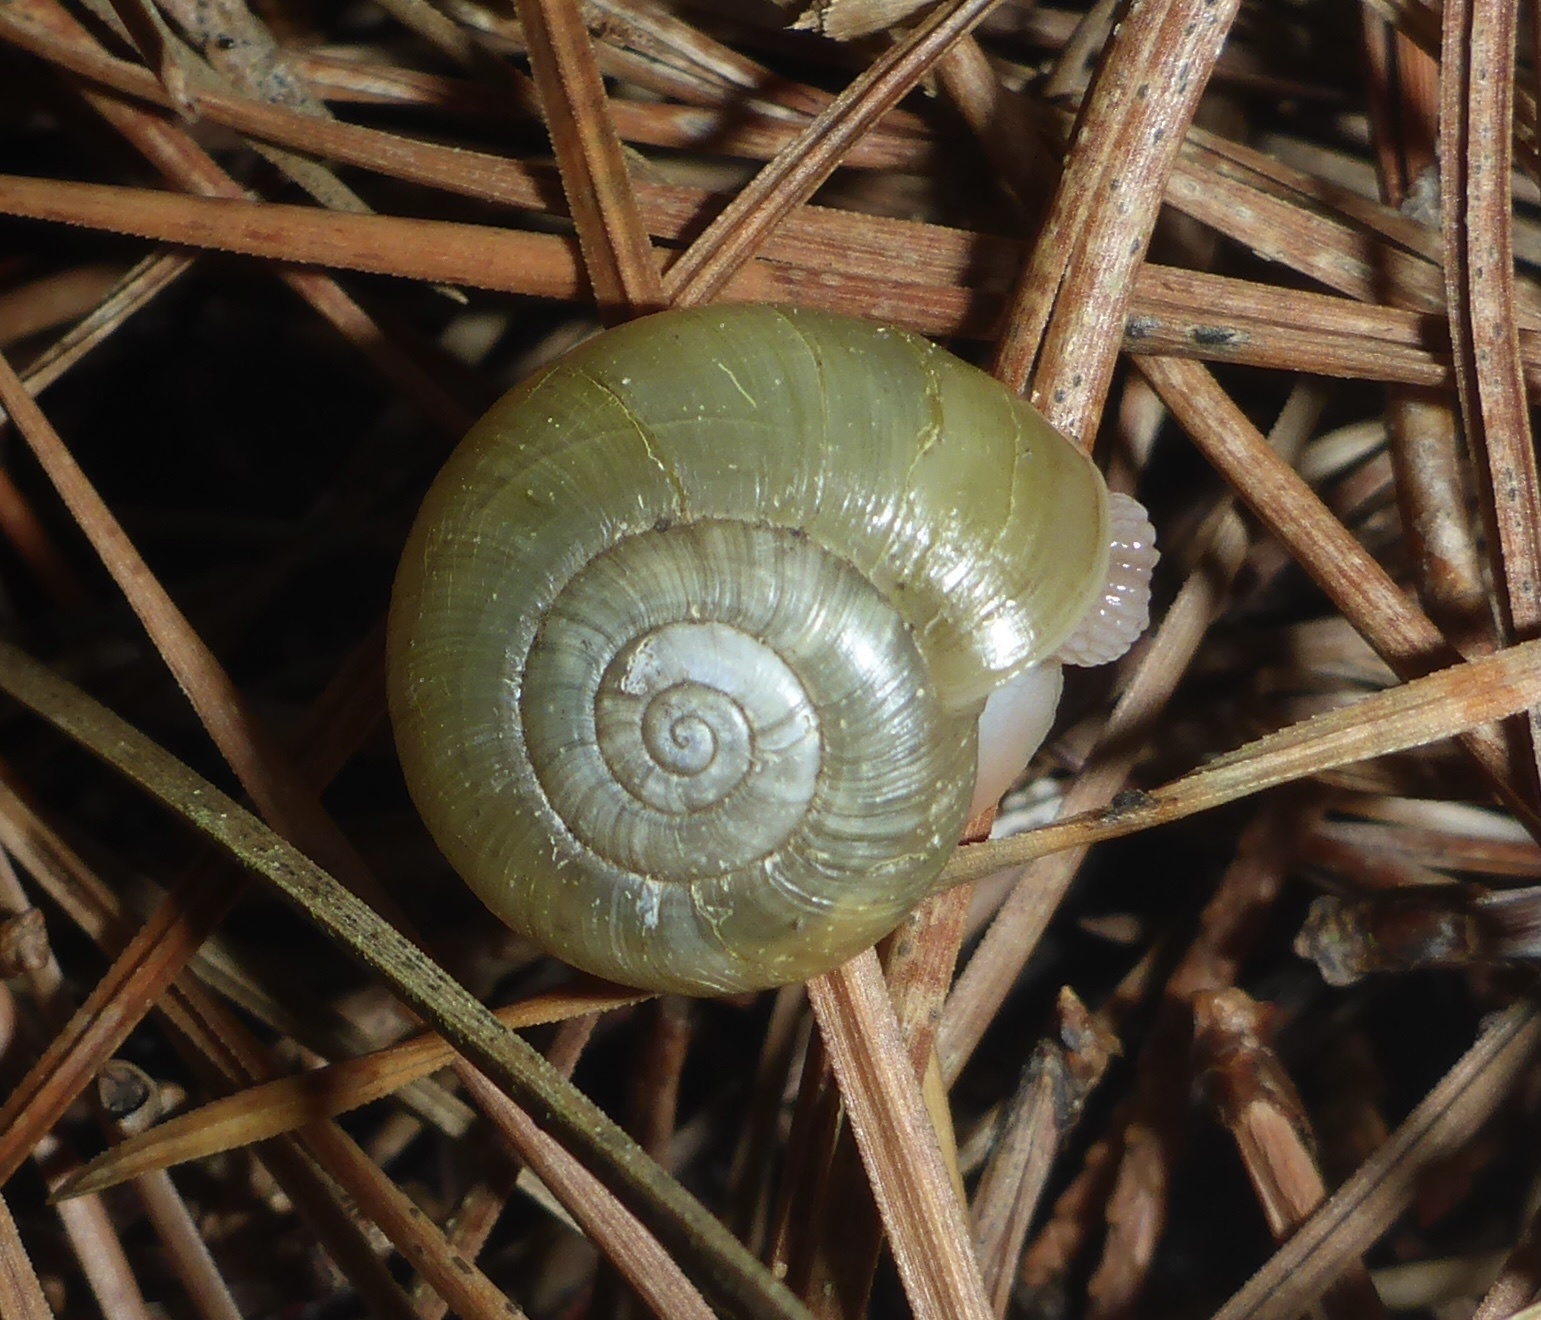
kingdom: Animalia
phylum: Mollusca
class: Gastropoda
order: Stylommatophora
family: Haplotrematidae
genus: Haplotrema
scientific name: Haplotrema minimum
